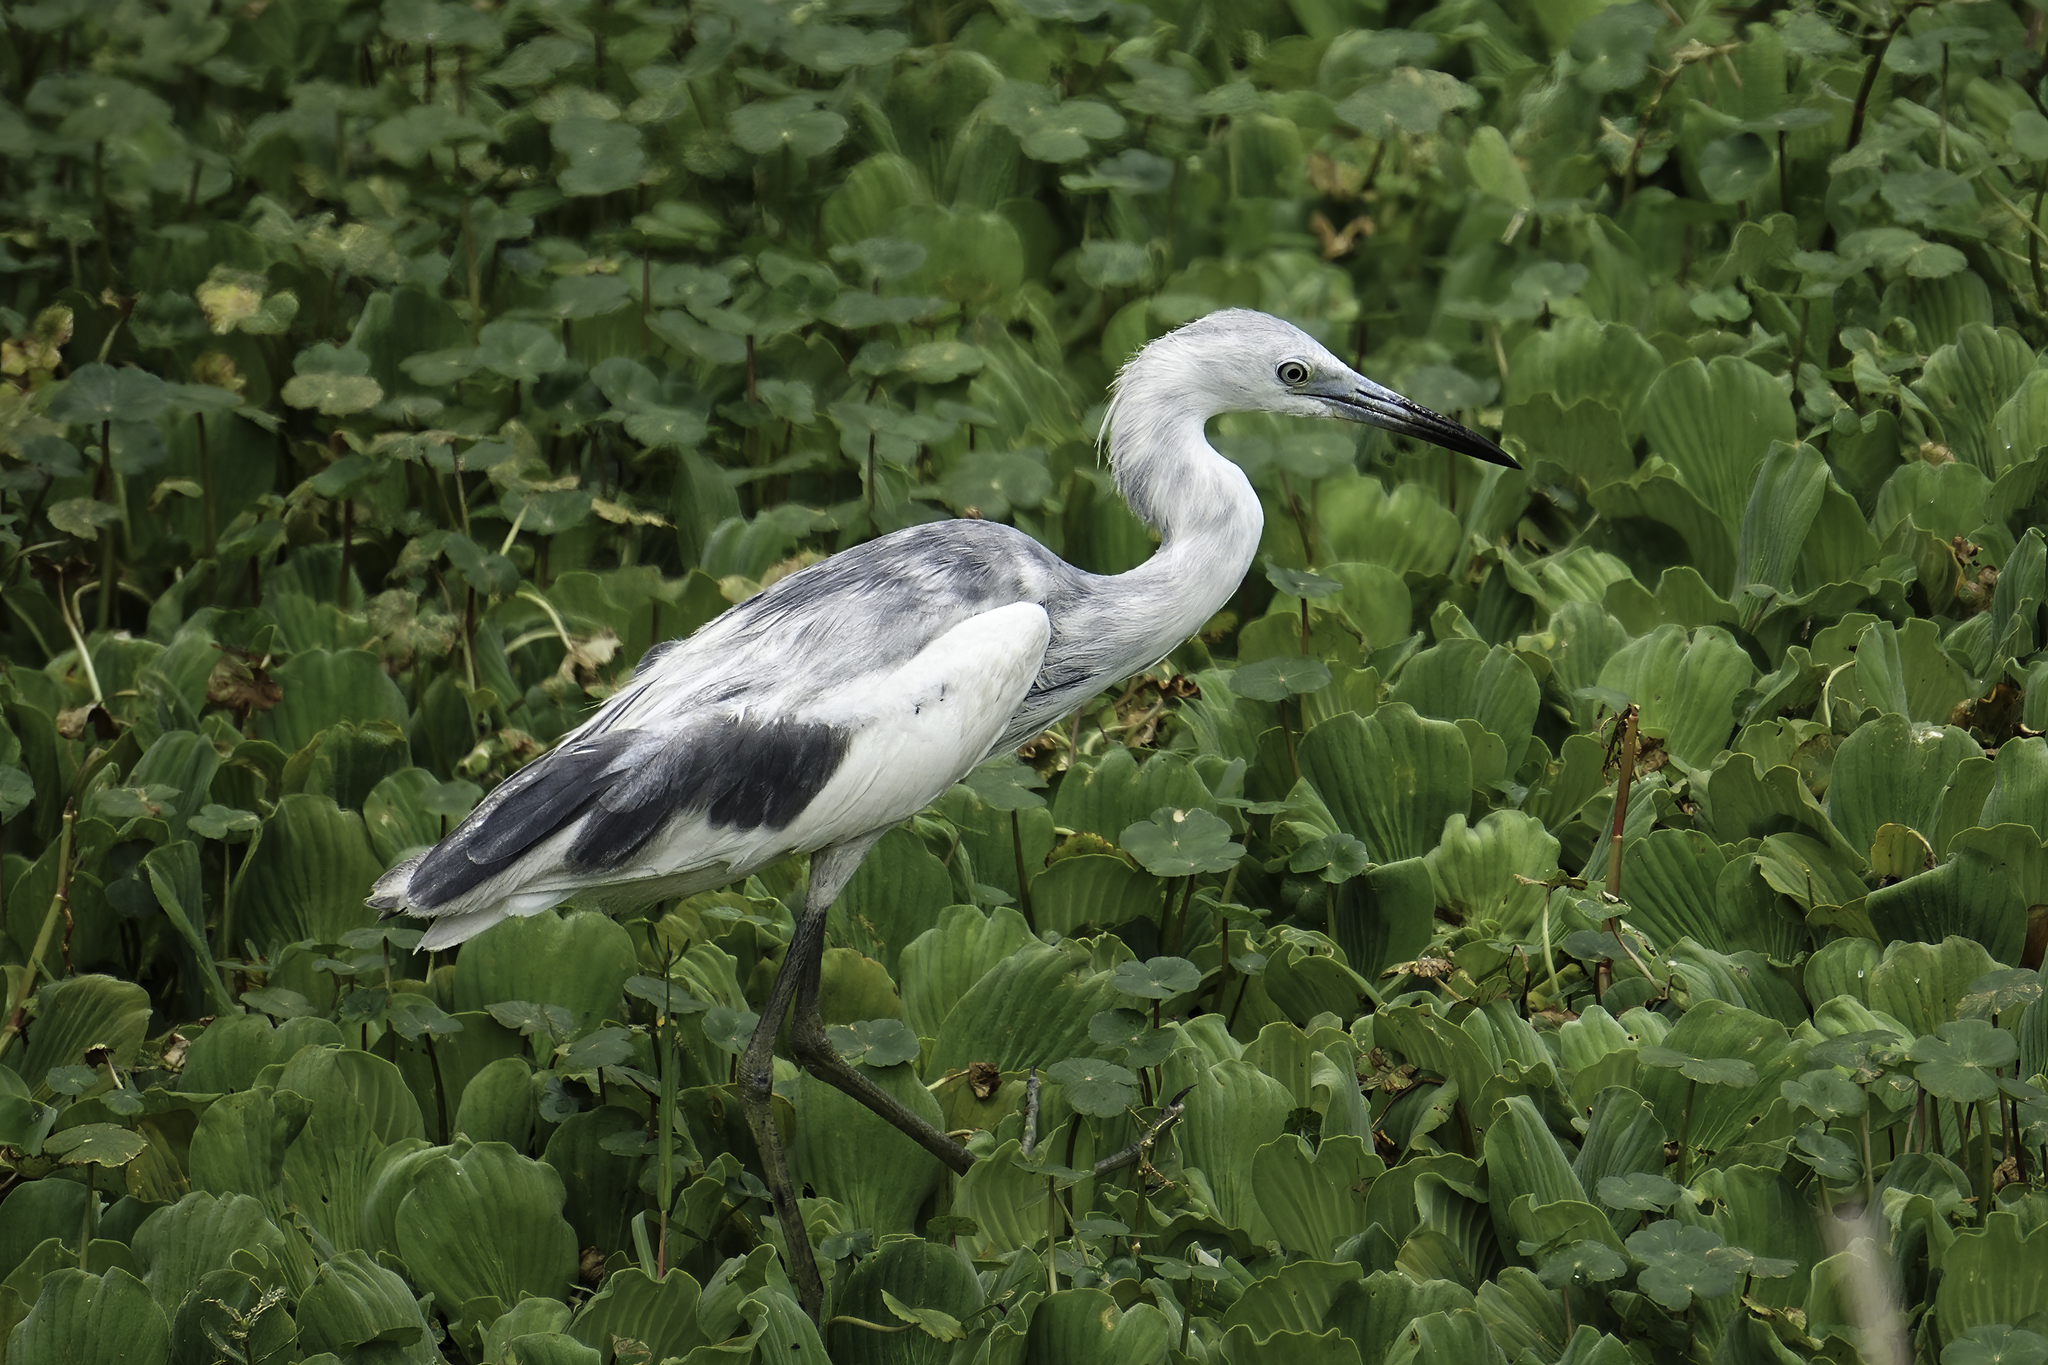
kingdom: Animalia
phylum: Chordata
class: Aves
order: Pelecaniformes
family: Ardeidae
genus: Egretta
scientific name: Egretta caerulea
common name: Little blue heron
